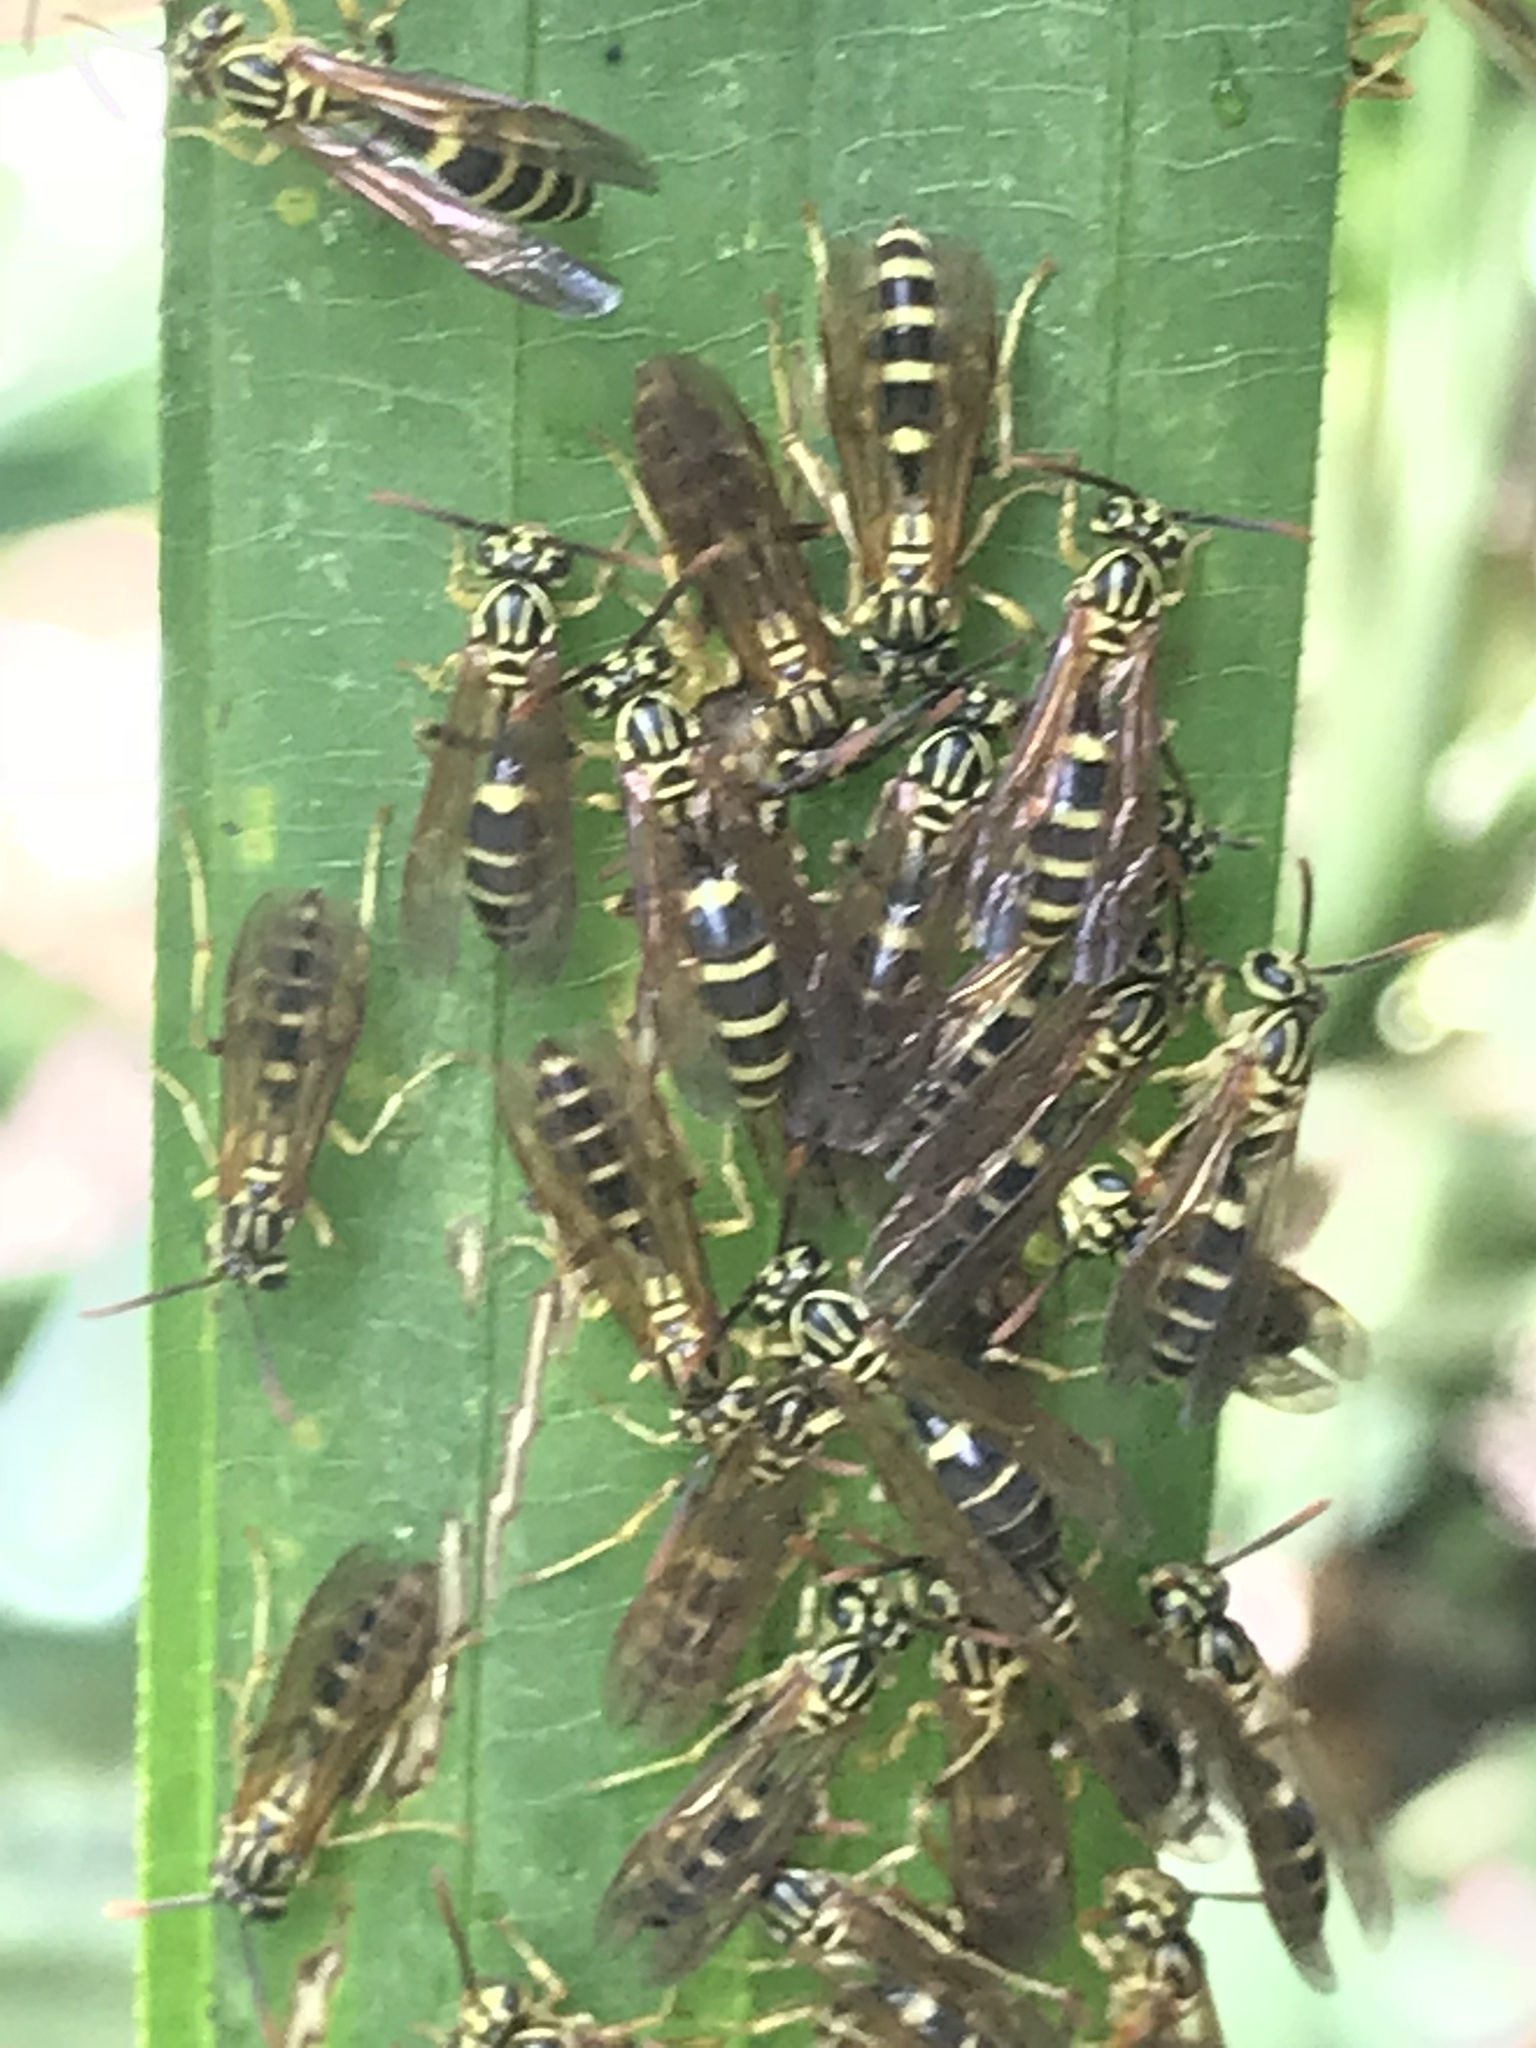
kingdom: Animalia
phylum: Arthropoda
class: Insecta
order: Hymenoptera
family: Vespidae
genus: Agelaia
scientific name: Agelaia yepocapa
